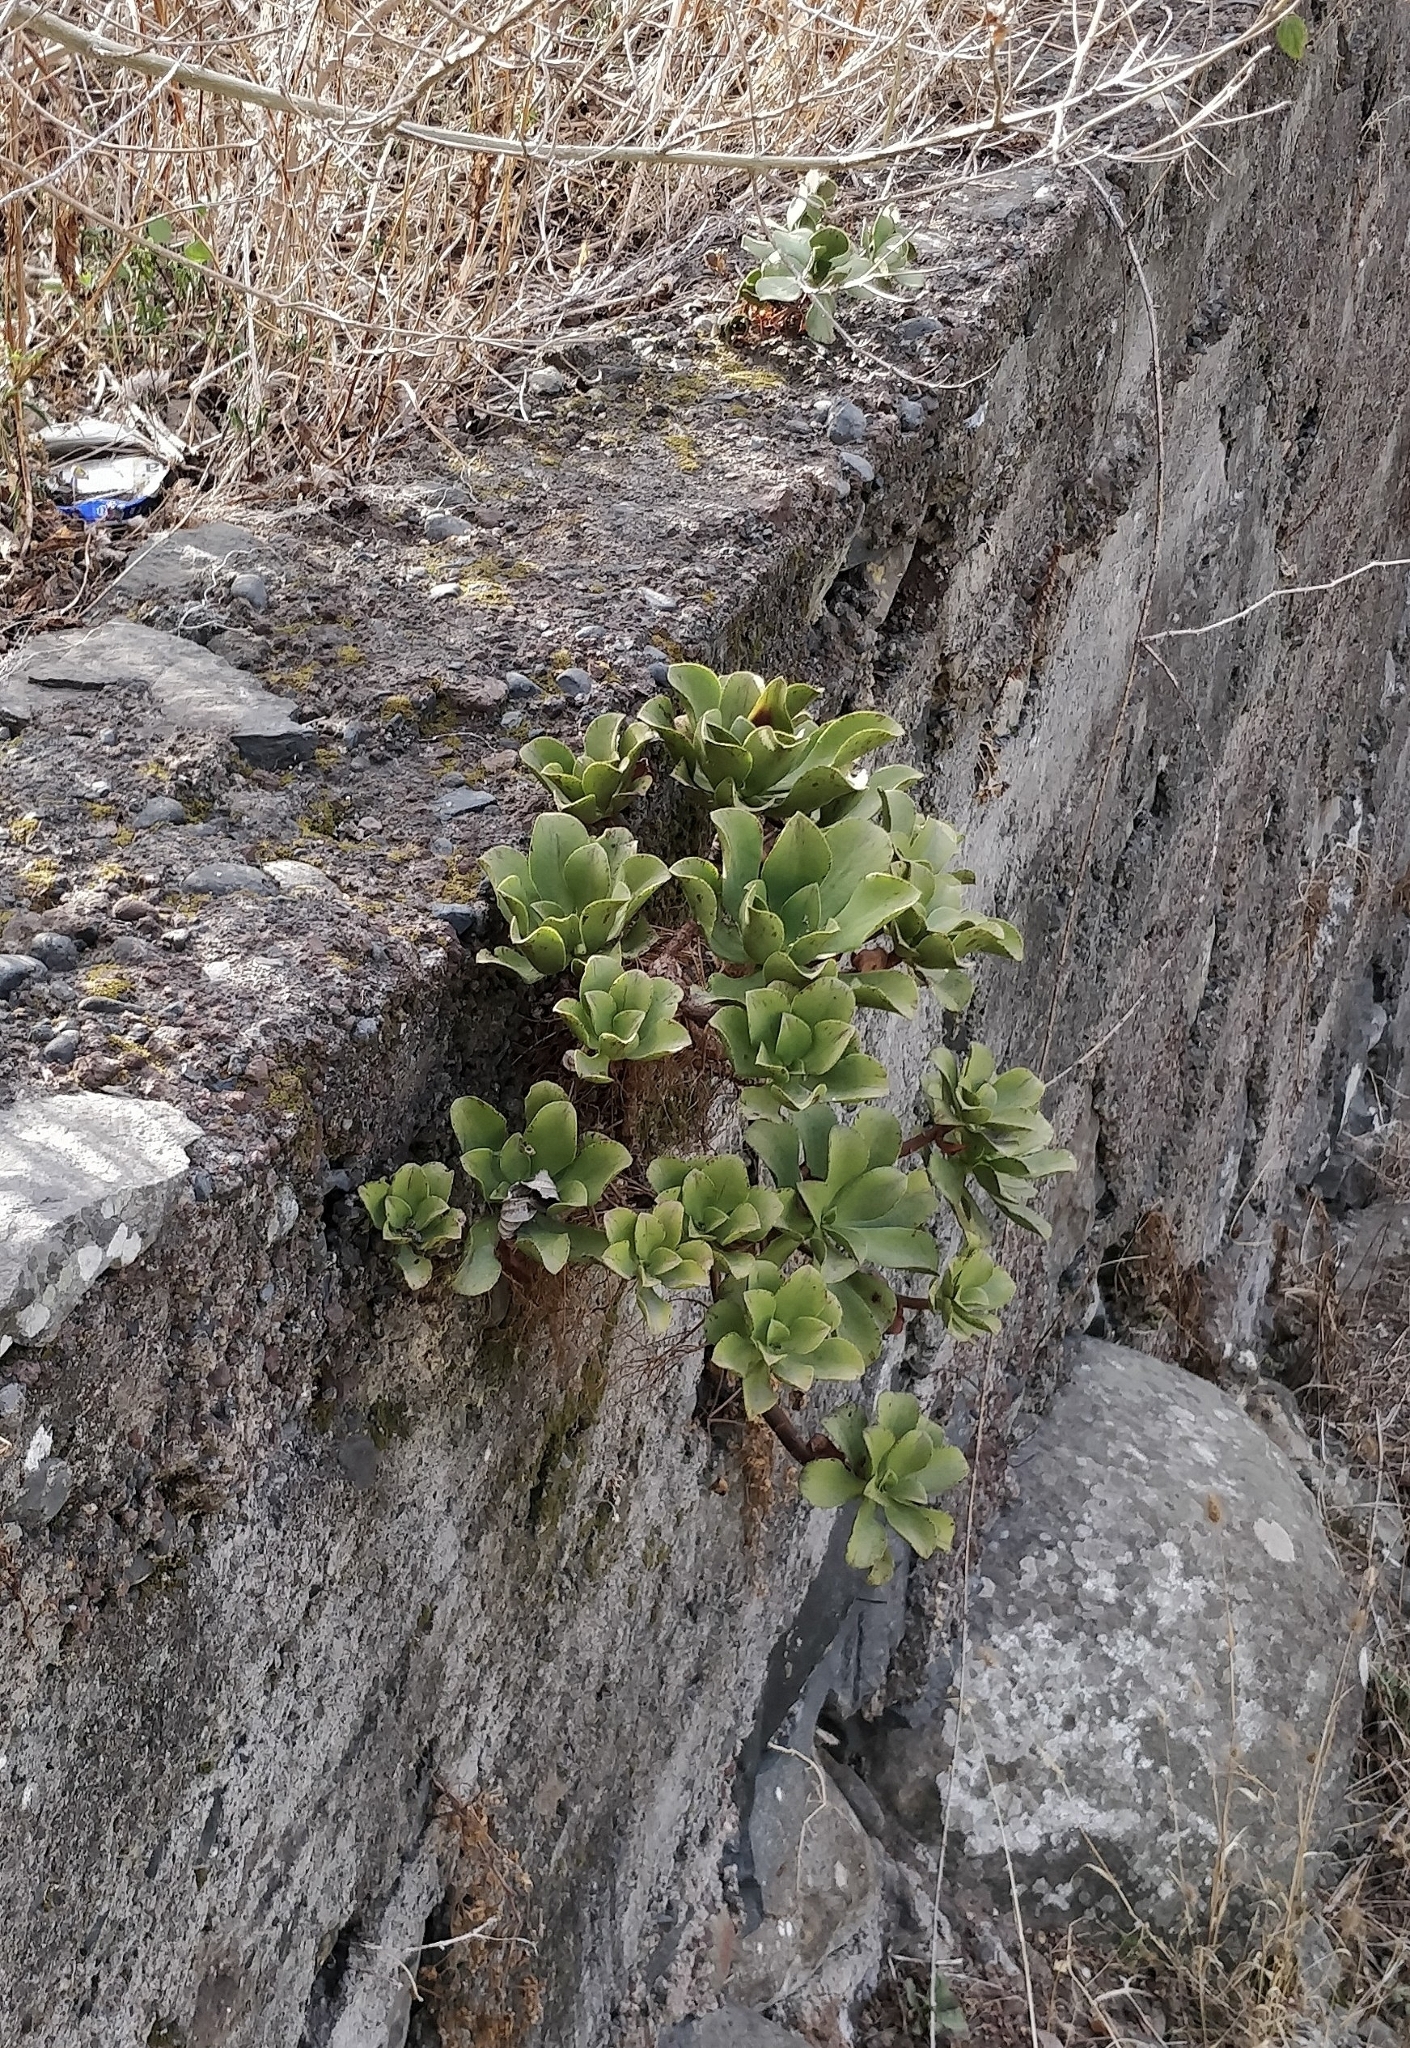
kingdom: Plantae
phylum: Tracheophyta
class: Magnoliopsida
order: Saxifragales
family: Crassulaceae
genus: Aeonium
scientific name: Aeonium glutinosum
